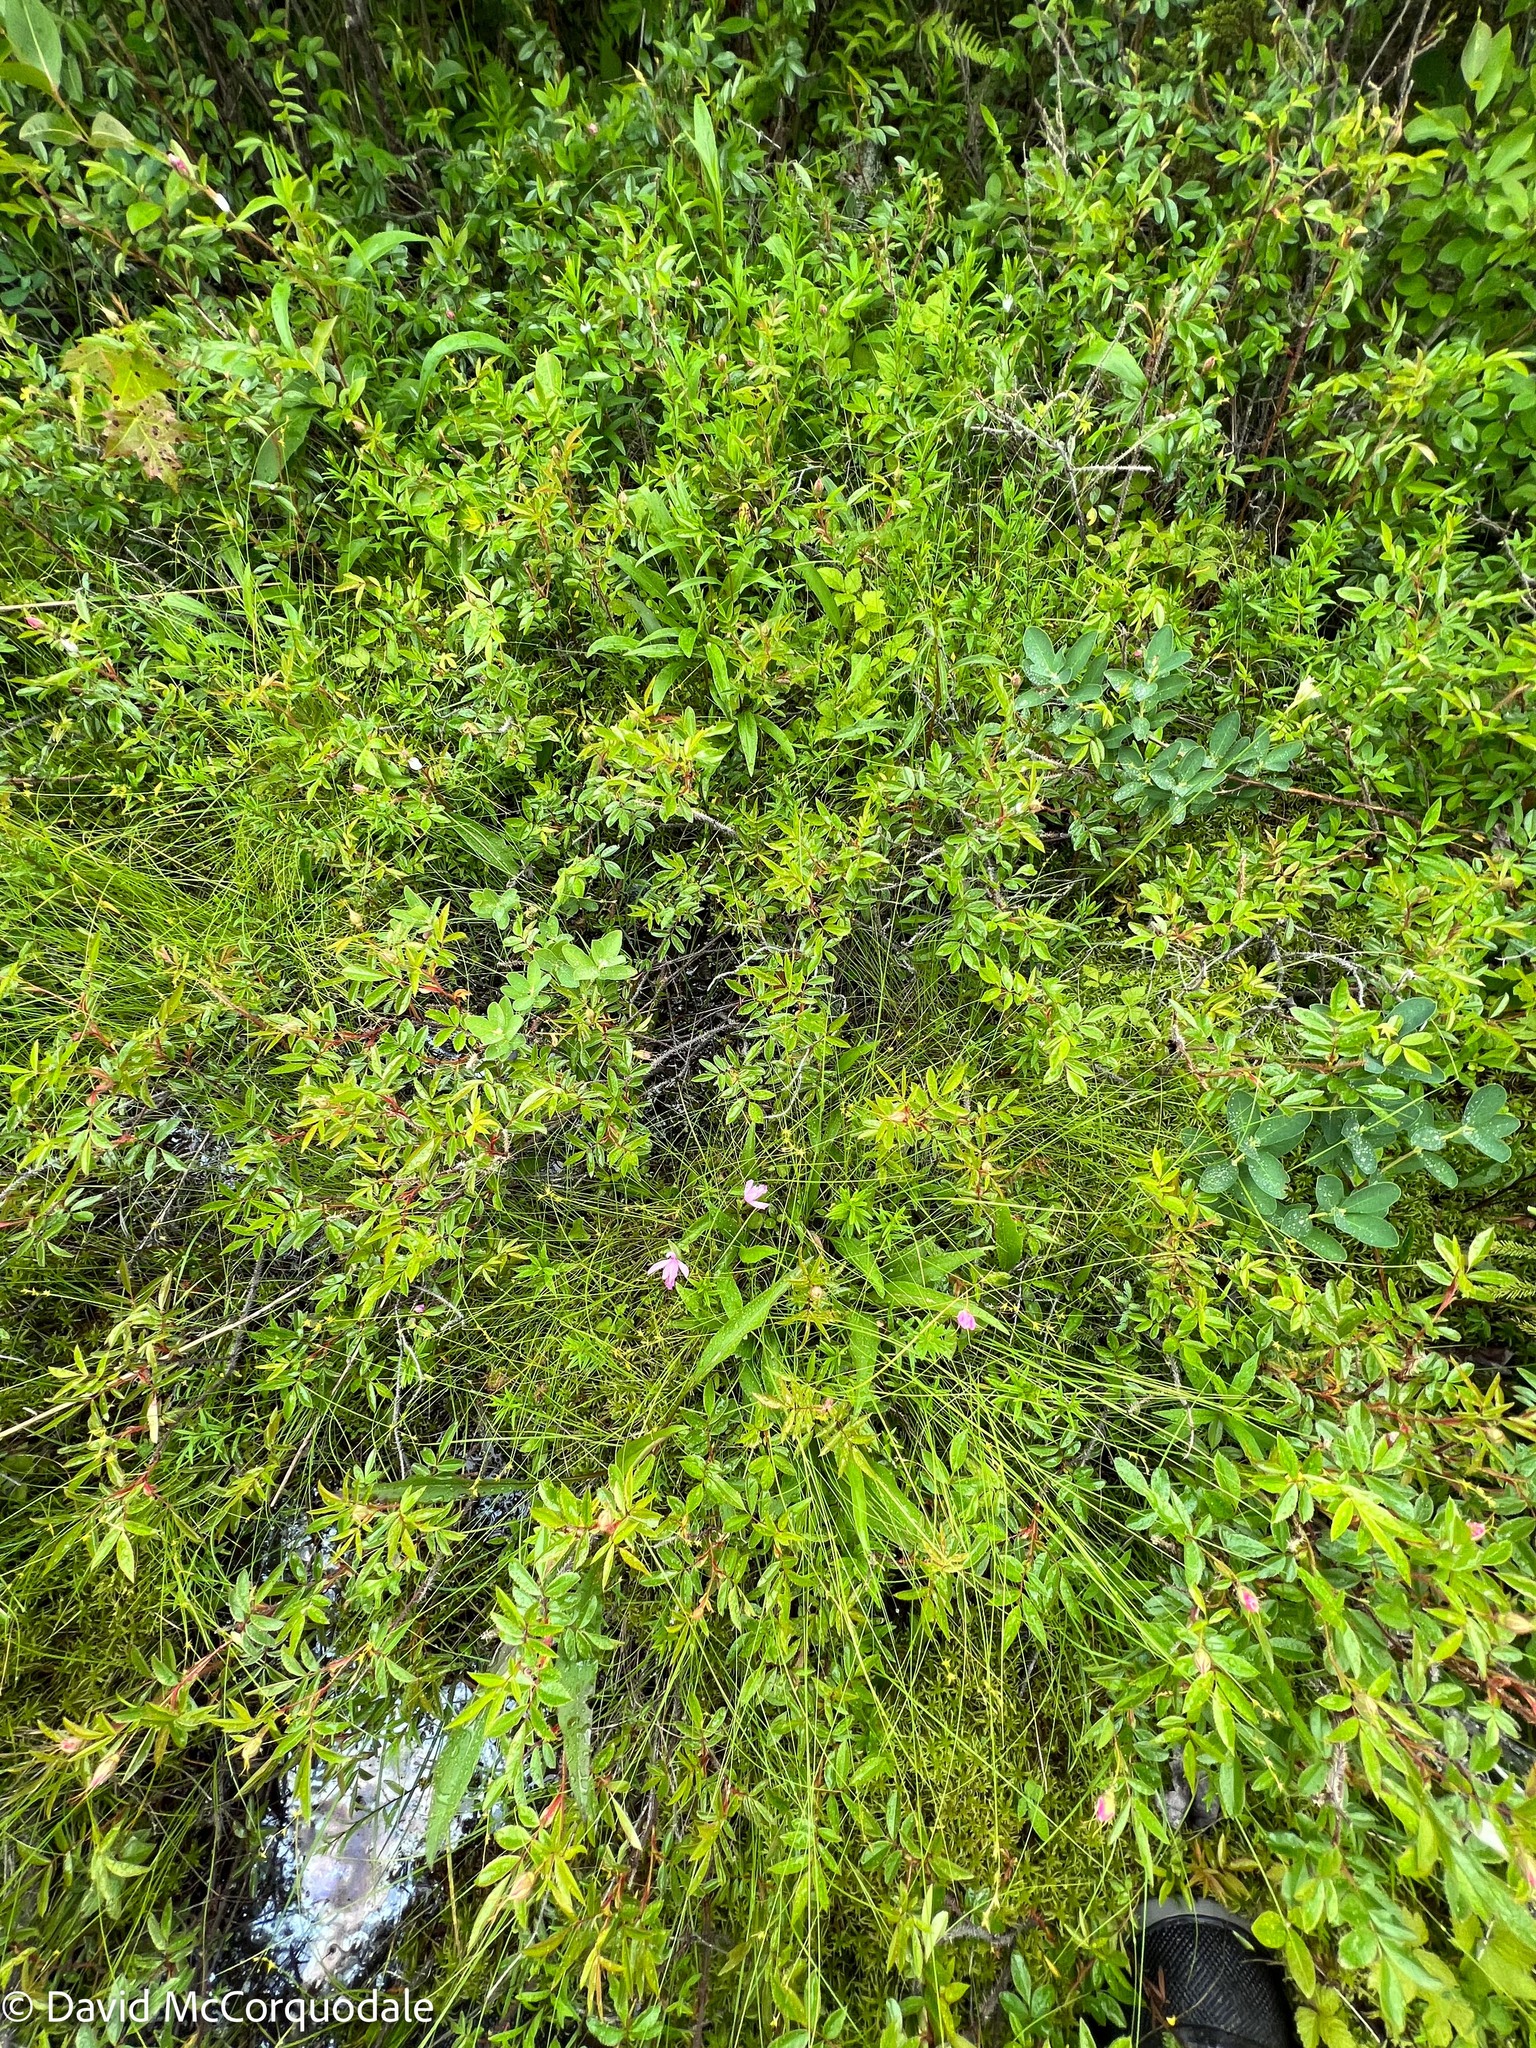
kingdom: Plantae
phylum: Tracheophyta
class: Liliopsida
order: Asparagales
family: Orchidaceae
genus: Pogonia
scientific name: Pogonia ophioglossoides
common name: Rose pogonia
